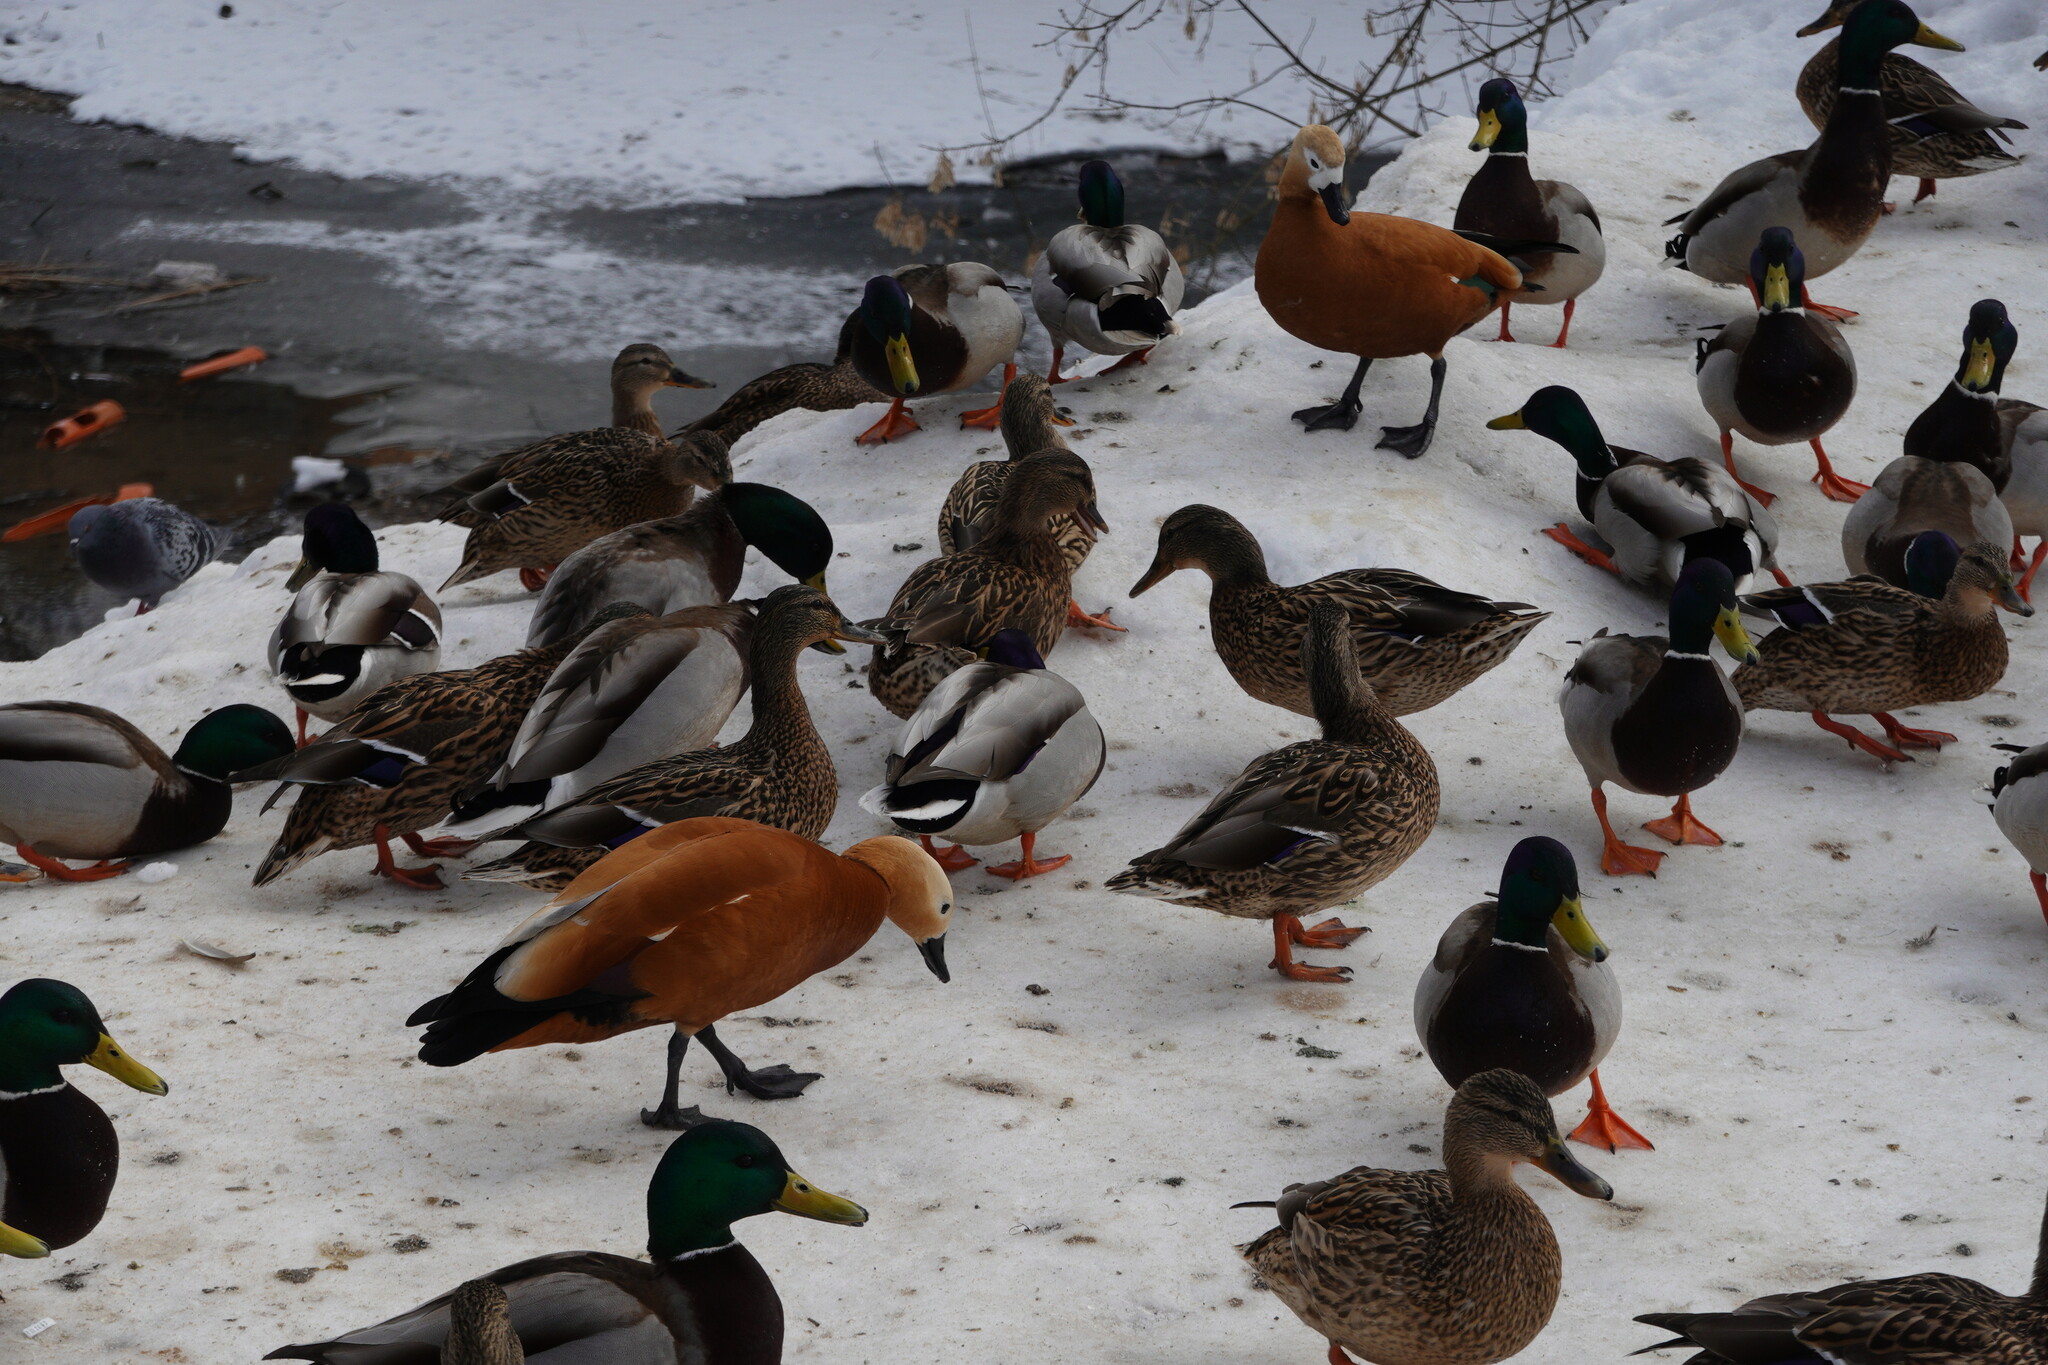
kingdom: Animalia
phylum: Chordata
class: Aves
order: Anseriformes
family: Anatidae
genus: Tadorna
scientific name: Tadorna ferruginea
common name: Ruddy shelduck
